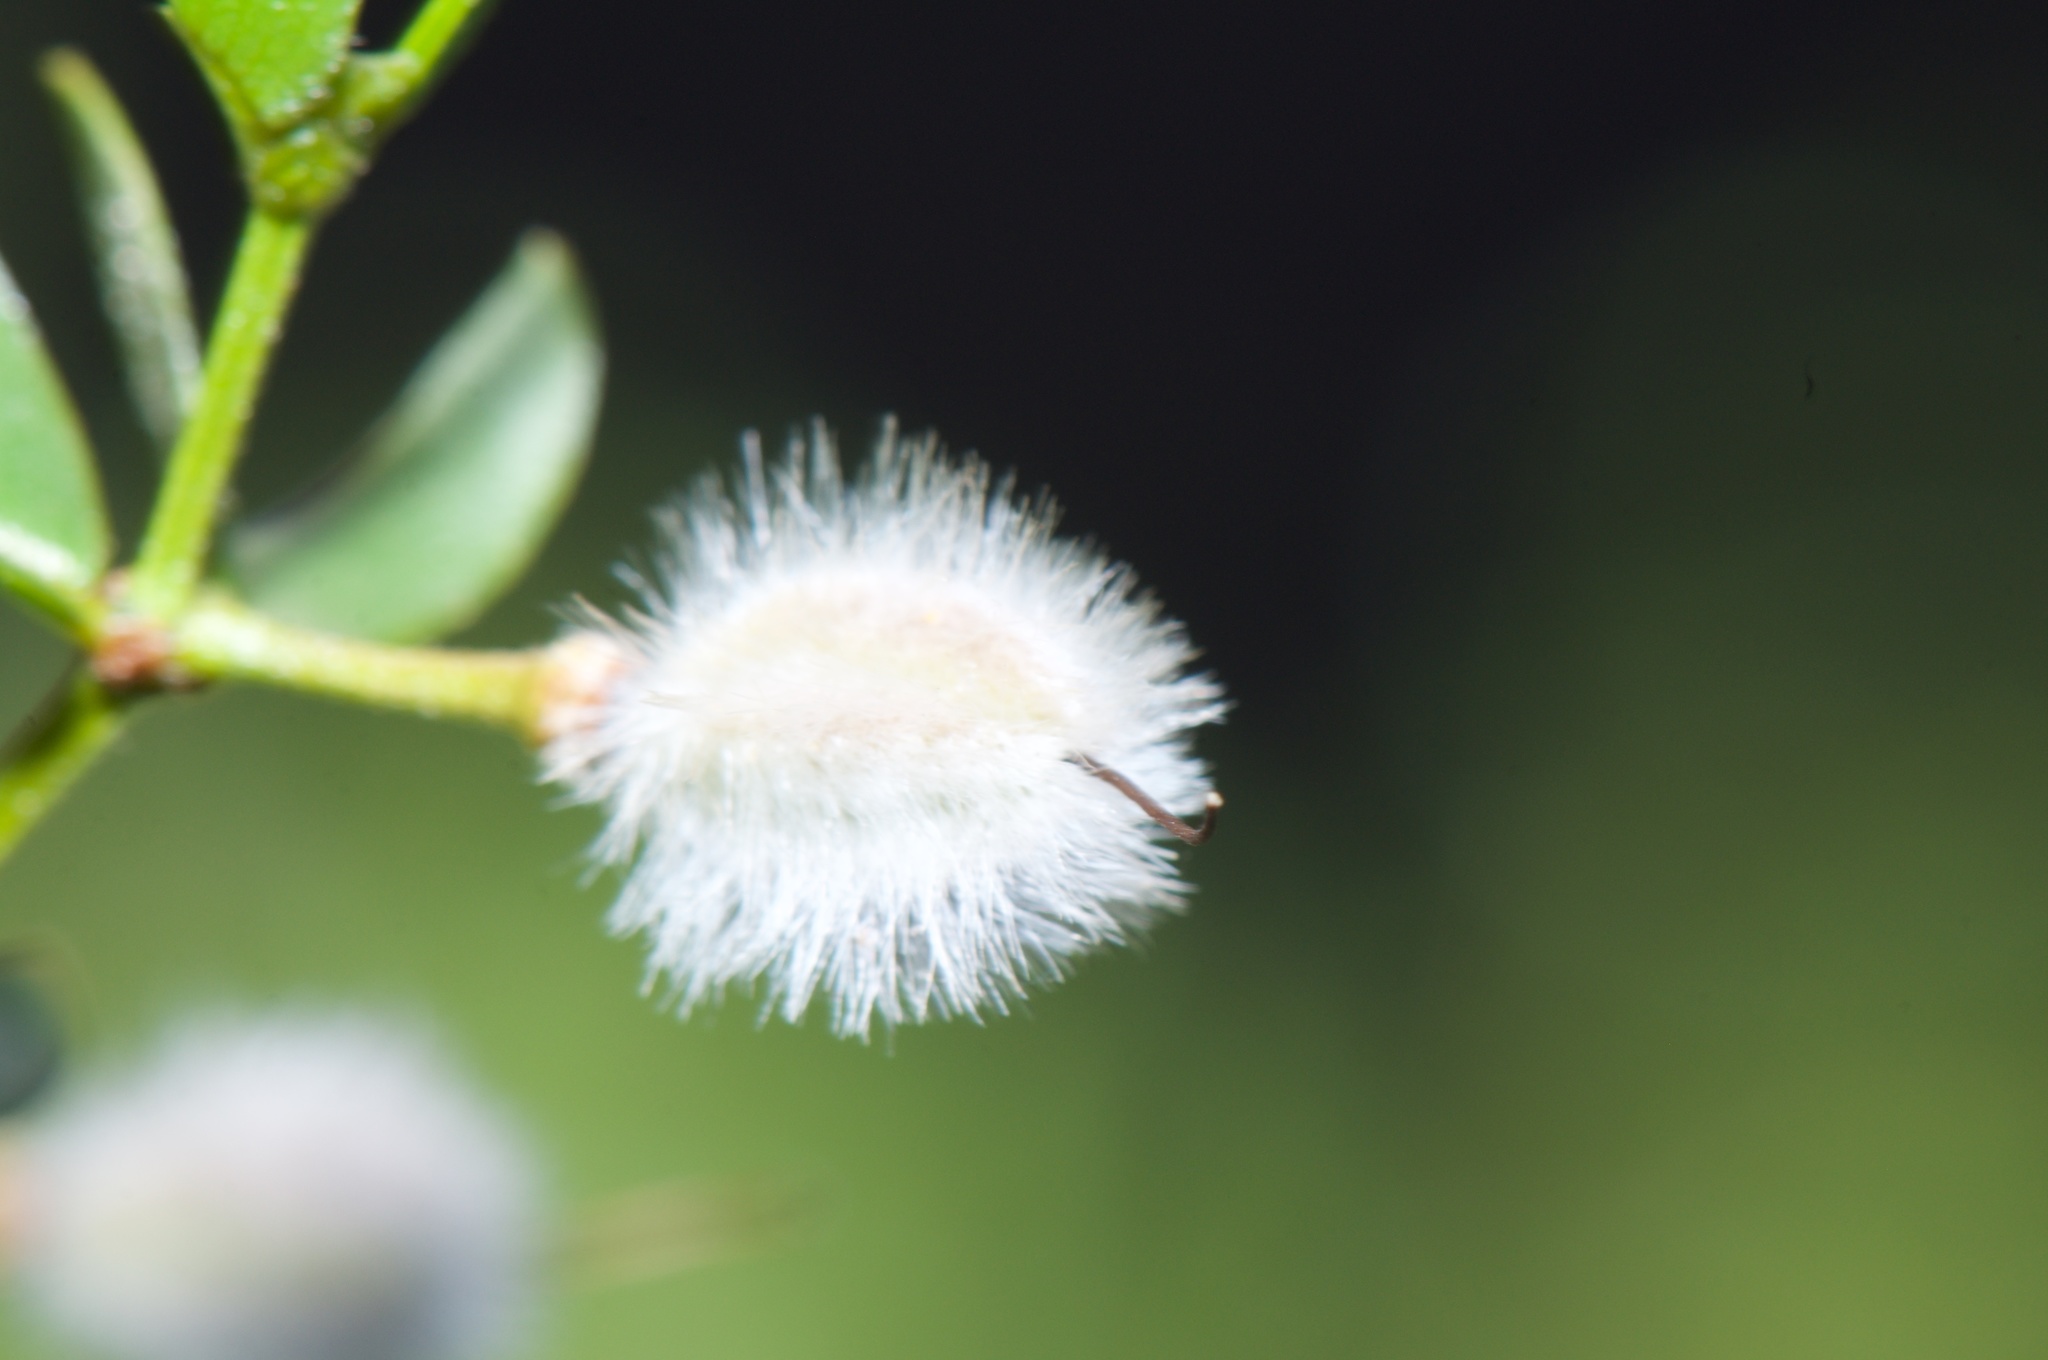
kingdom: Plantae
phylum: Tracheophyta
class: Magnoliopsida
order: Zygophyllales
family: Zygophyllaceae
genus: Larrea
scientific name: Larrea divaricata
